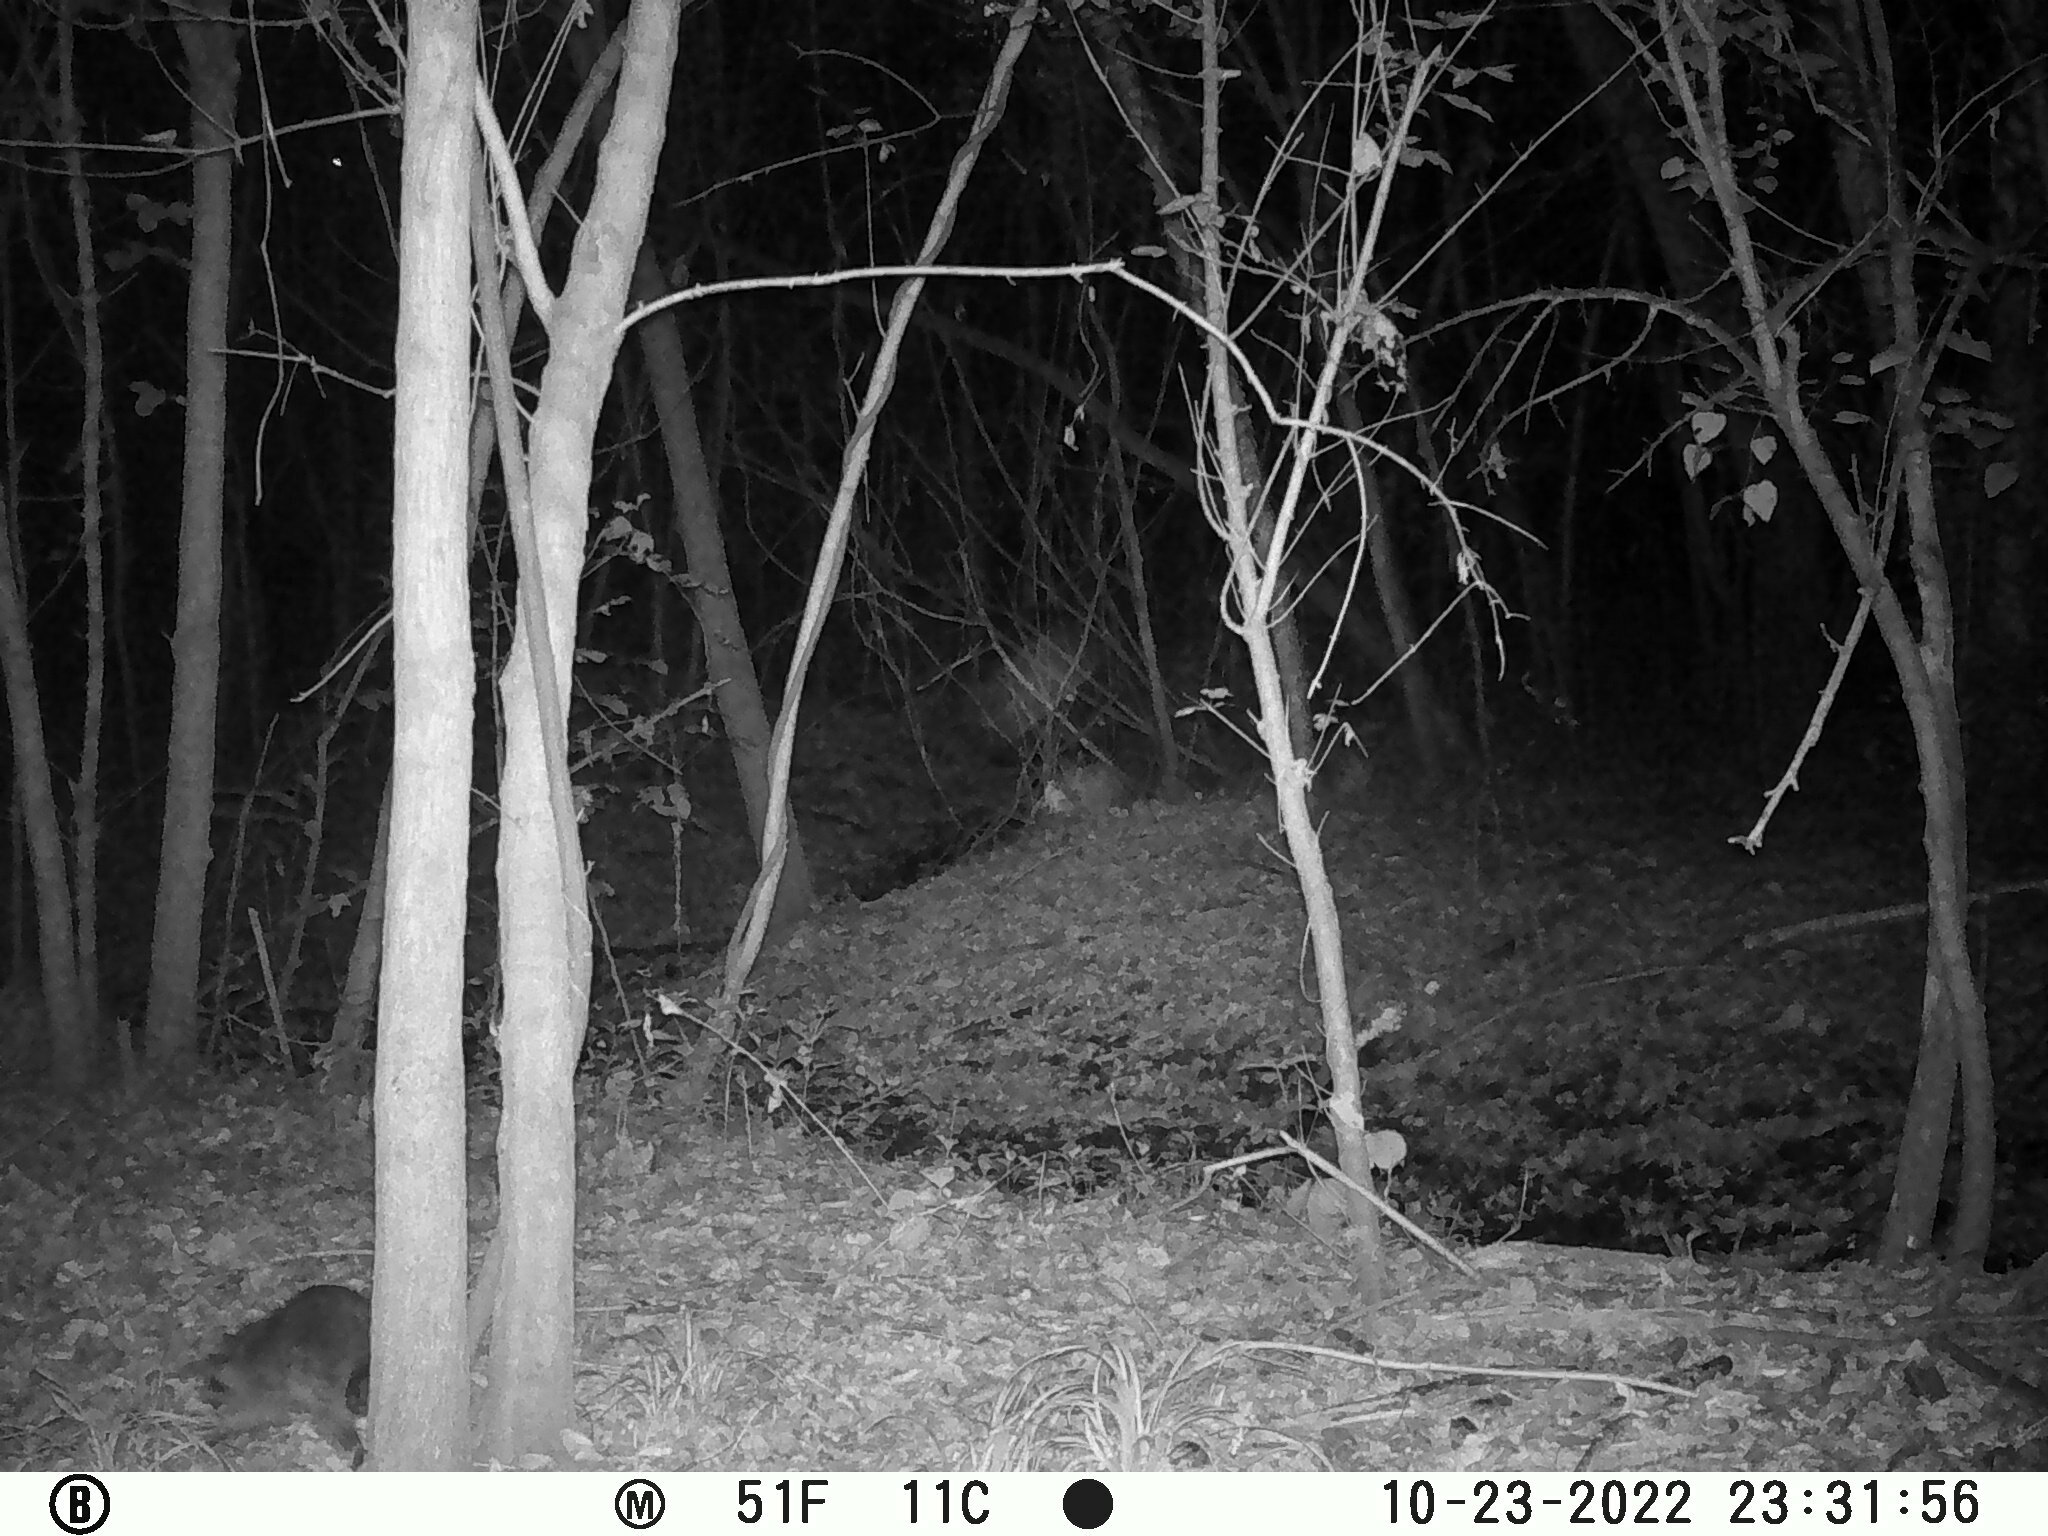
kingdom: Animalia
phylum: Chordata
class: Mammalia
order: Carnivora
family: Procyonidae
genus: Procyon
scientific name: Procyon lotor
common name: Raccoon
